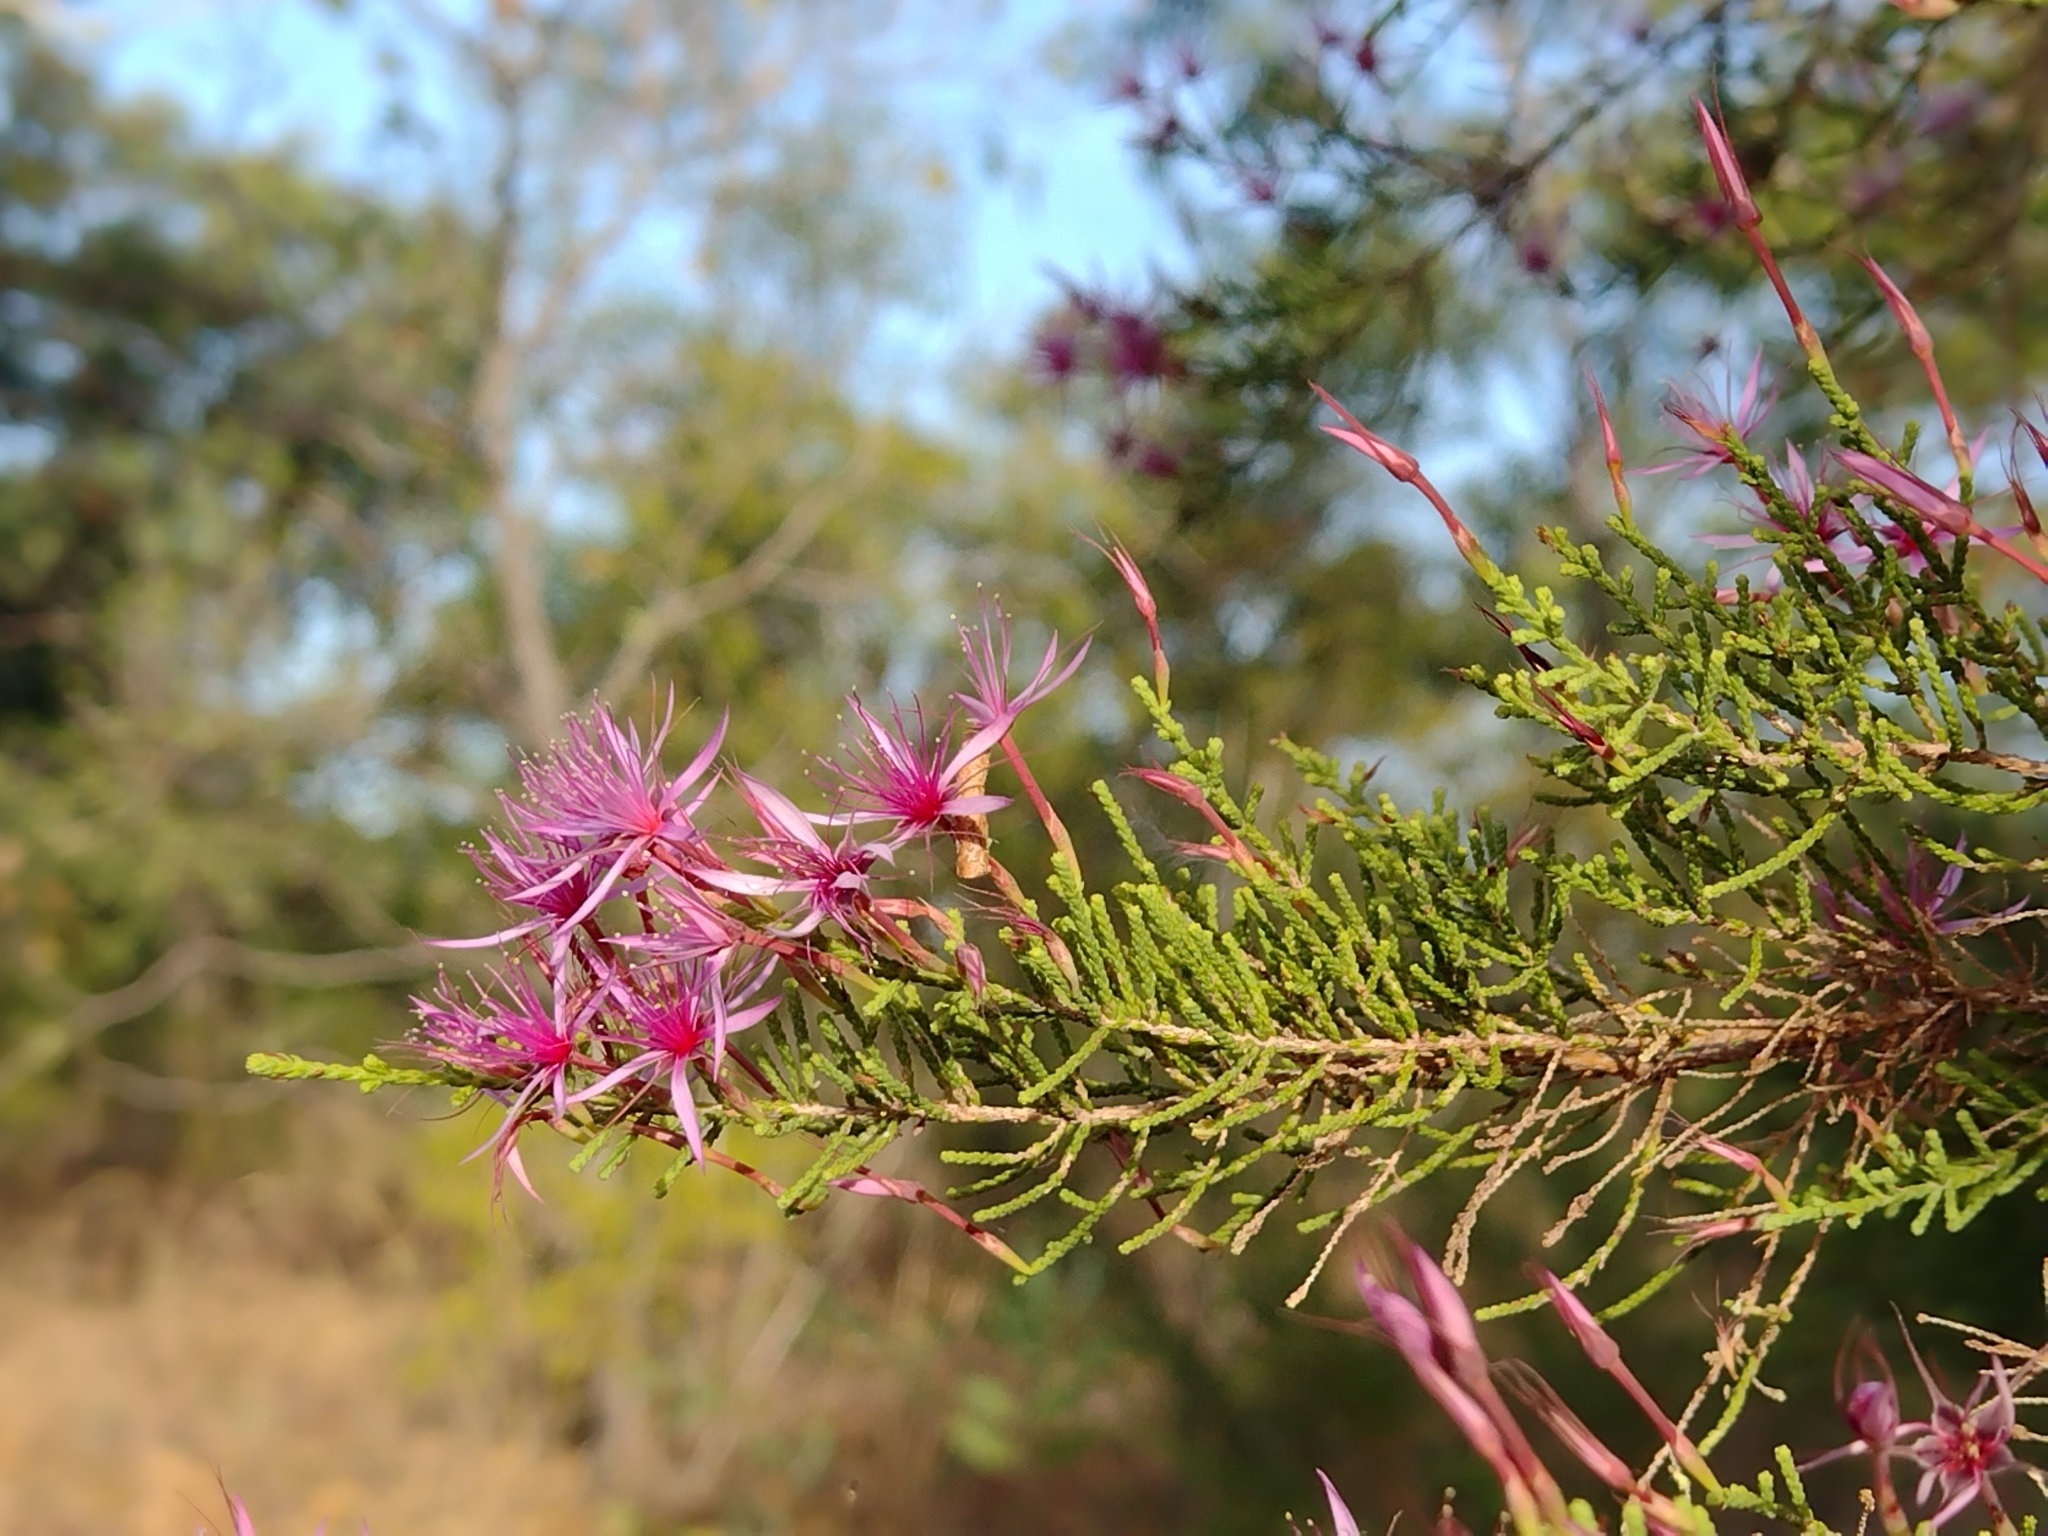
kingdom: Plantae
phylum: Tracheophyta
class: Magnoliopsida
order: Myrtales
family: Myrtaceae
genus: Calytrix
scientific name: Calytrix exstipulata
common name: Kimberley heather
